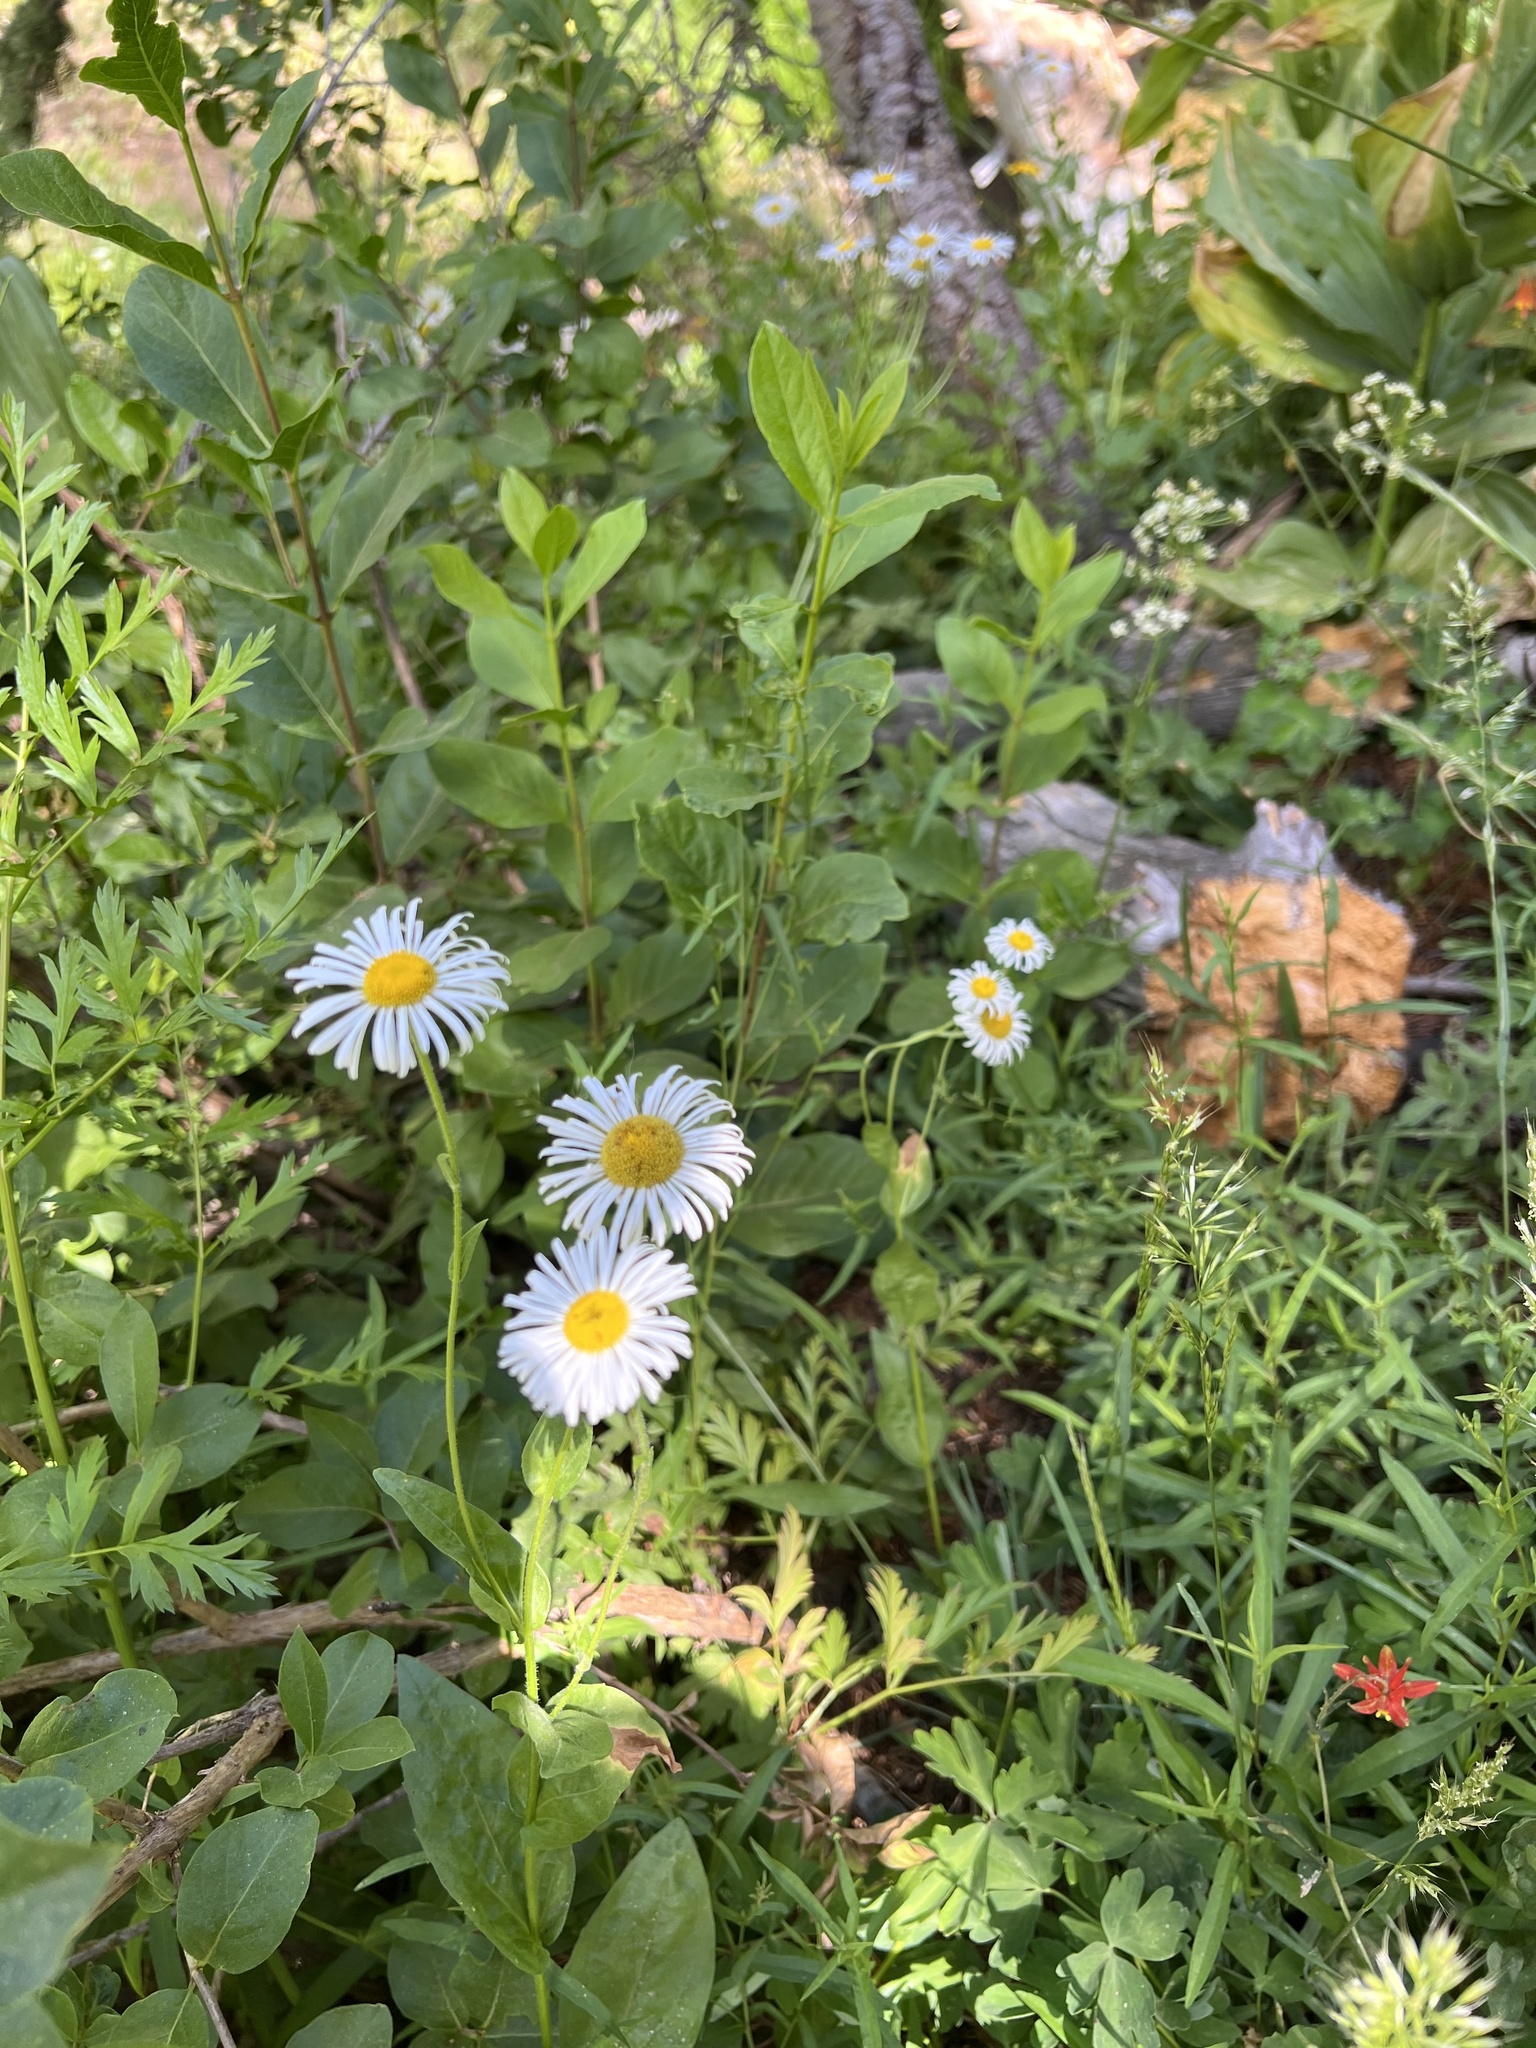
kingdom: Plantae
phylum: Tracheophyta
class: Magnoliopsida
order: Asterales
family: Asteraceae
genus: Erigeron
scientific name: Erigeron coulteri
